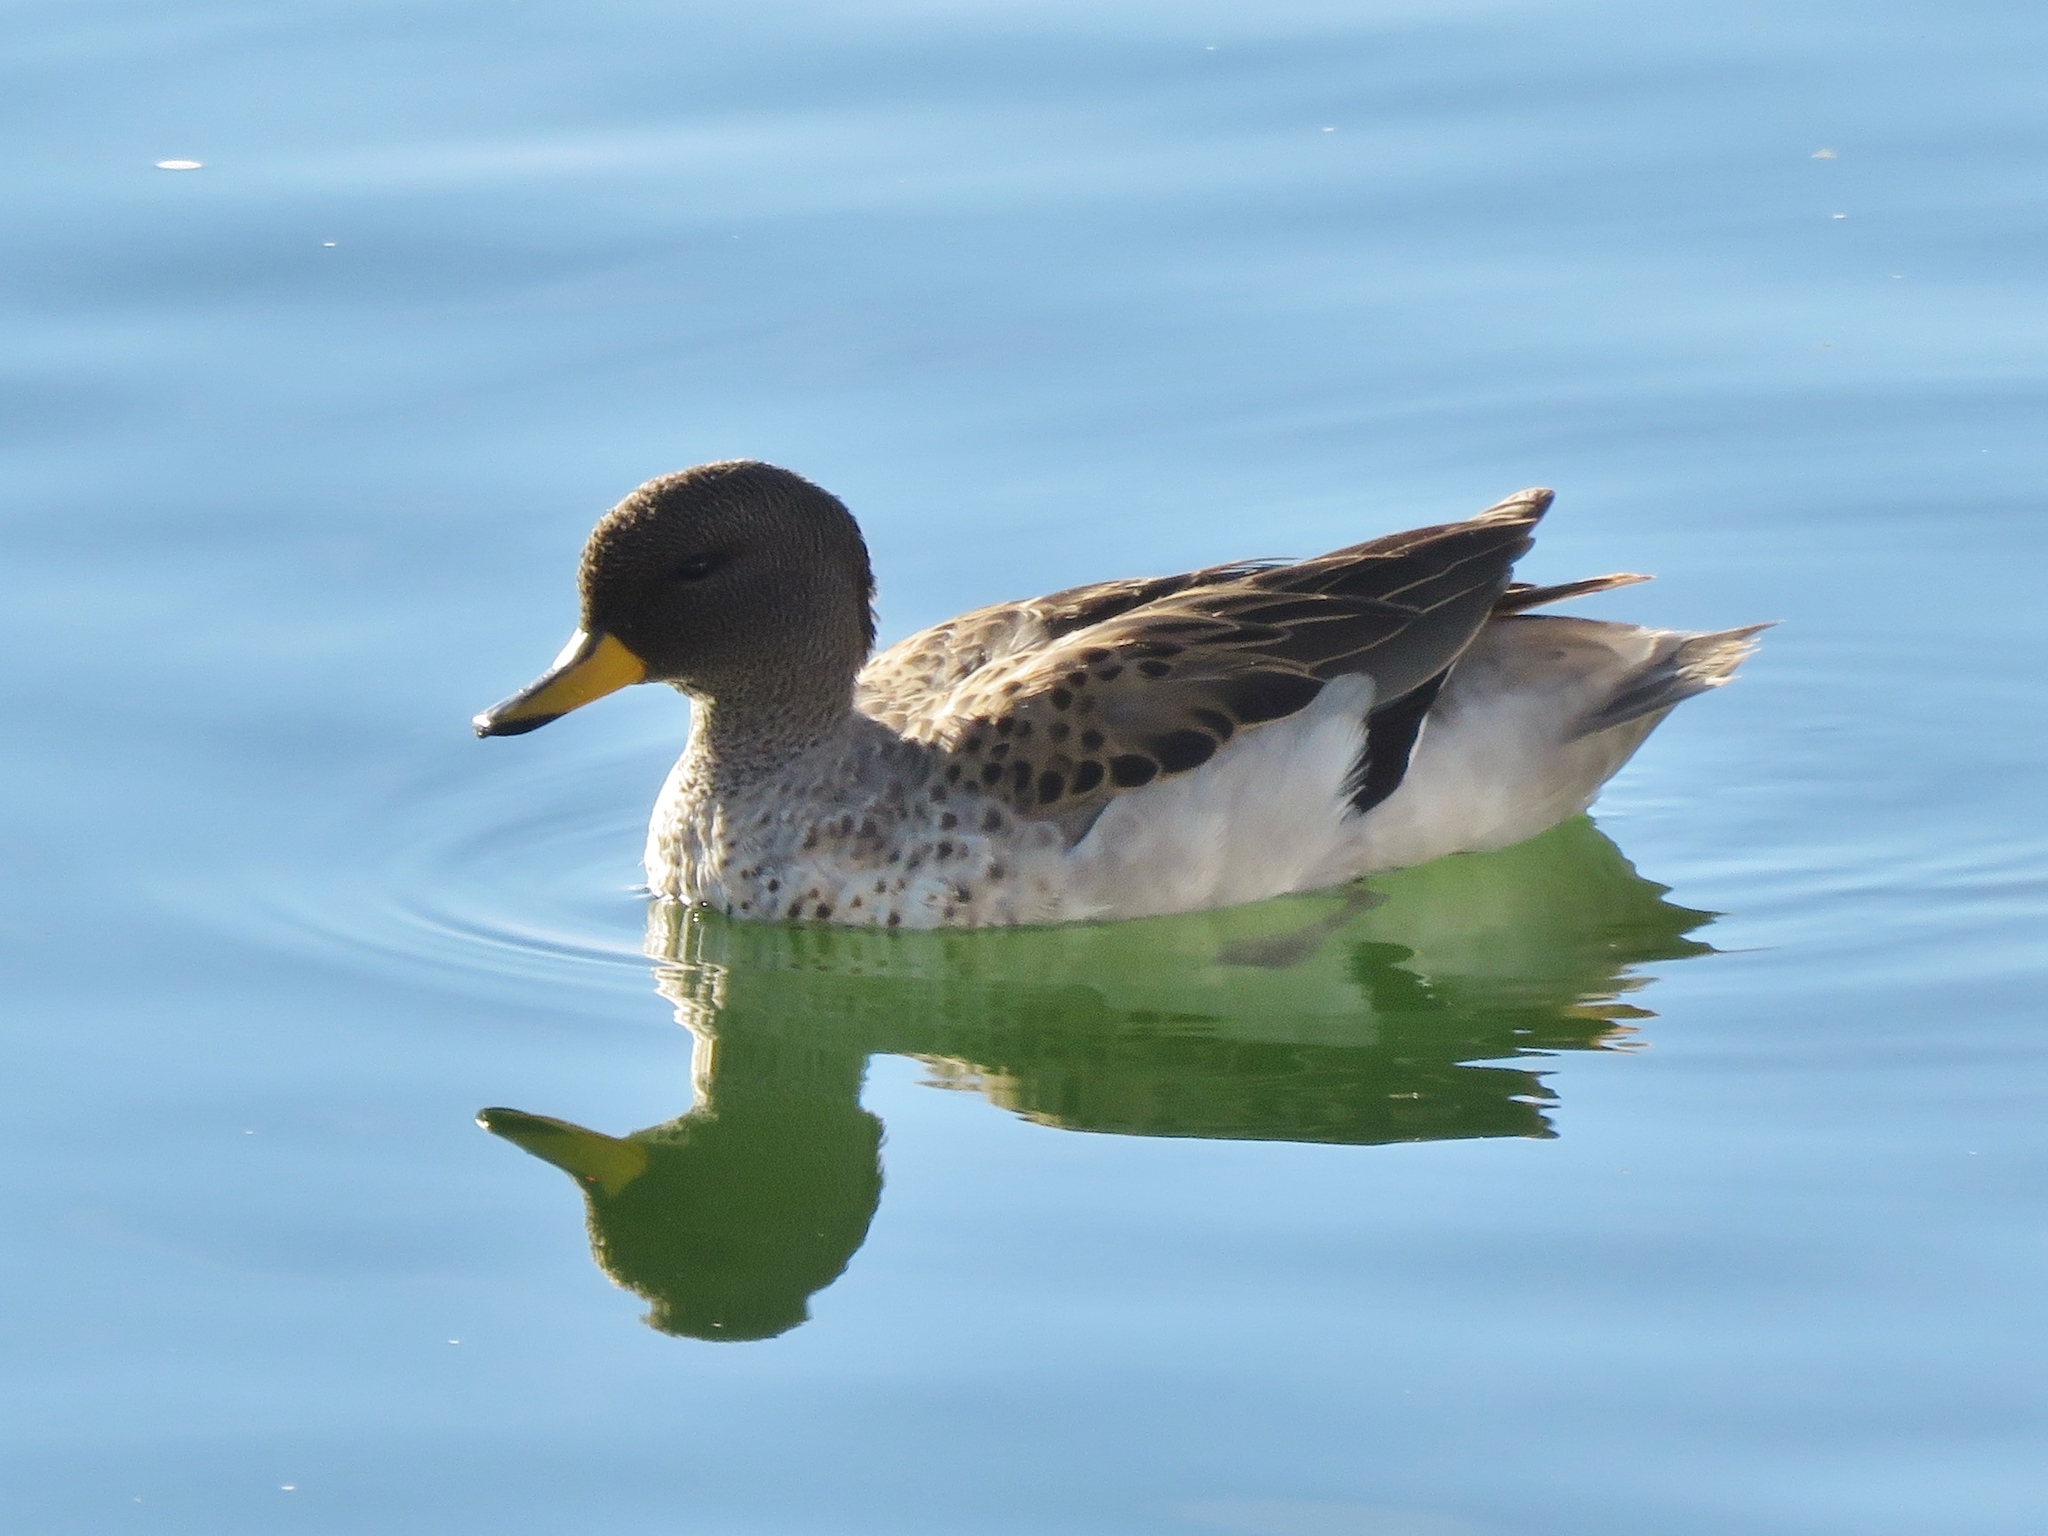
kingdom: Animalia
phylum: Chordata
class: Aves
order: Anseriformes
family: Anatidae
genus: Anas
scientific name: Anas flavirostris
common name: Yellow-billed teal
